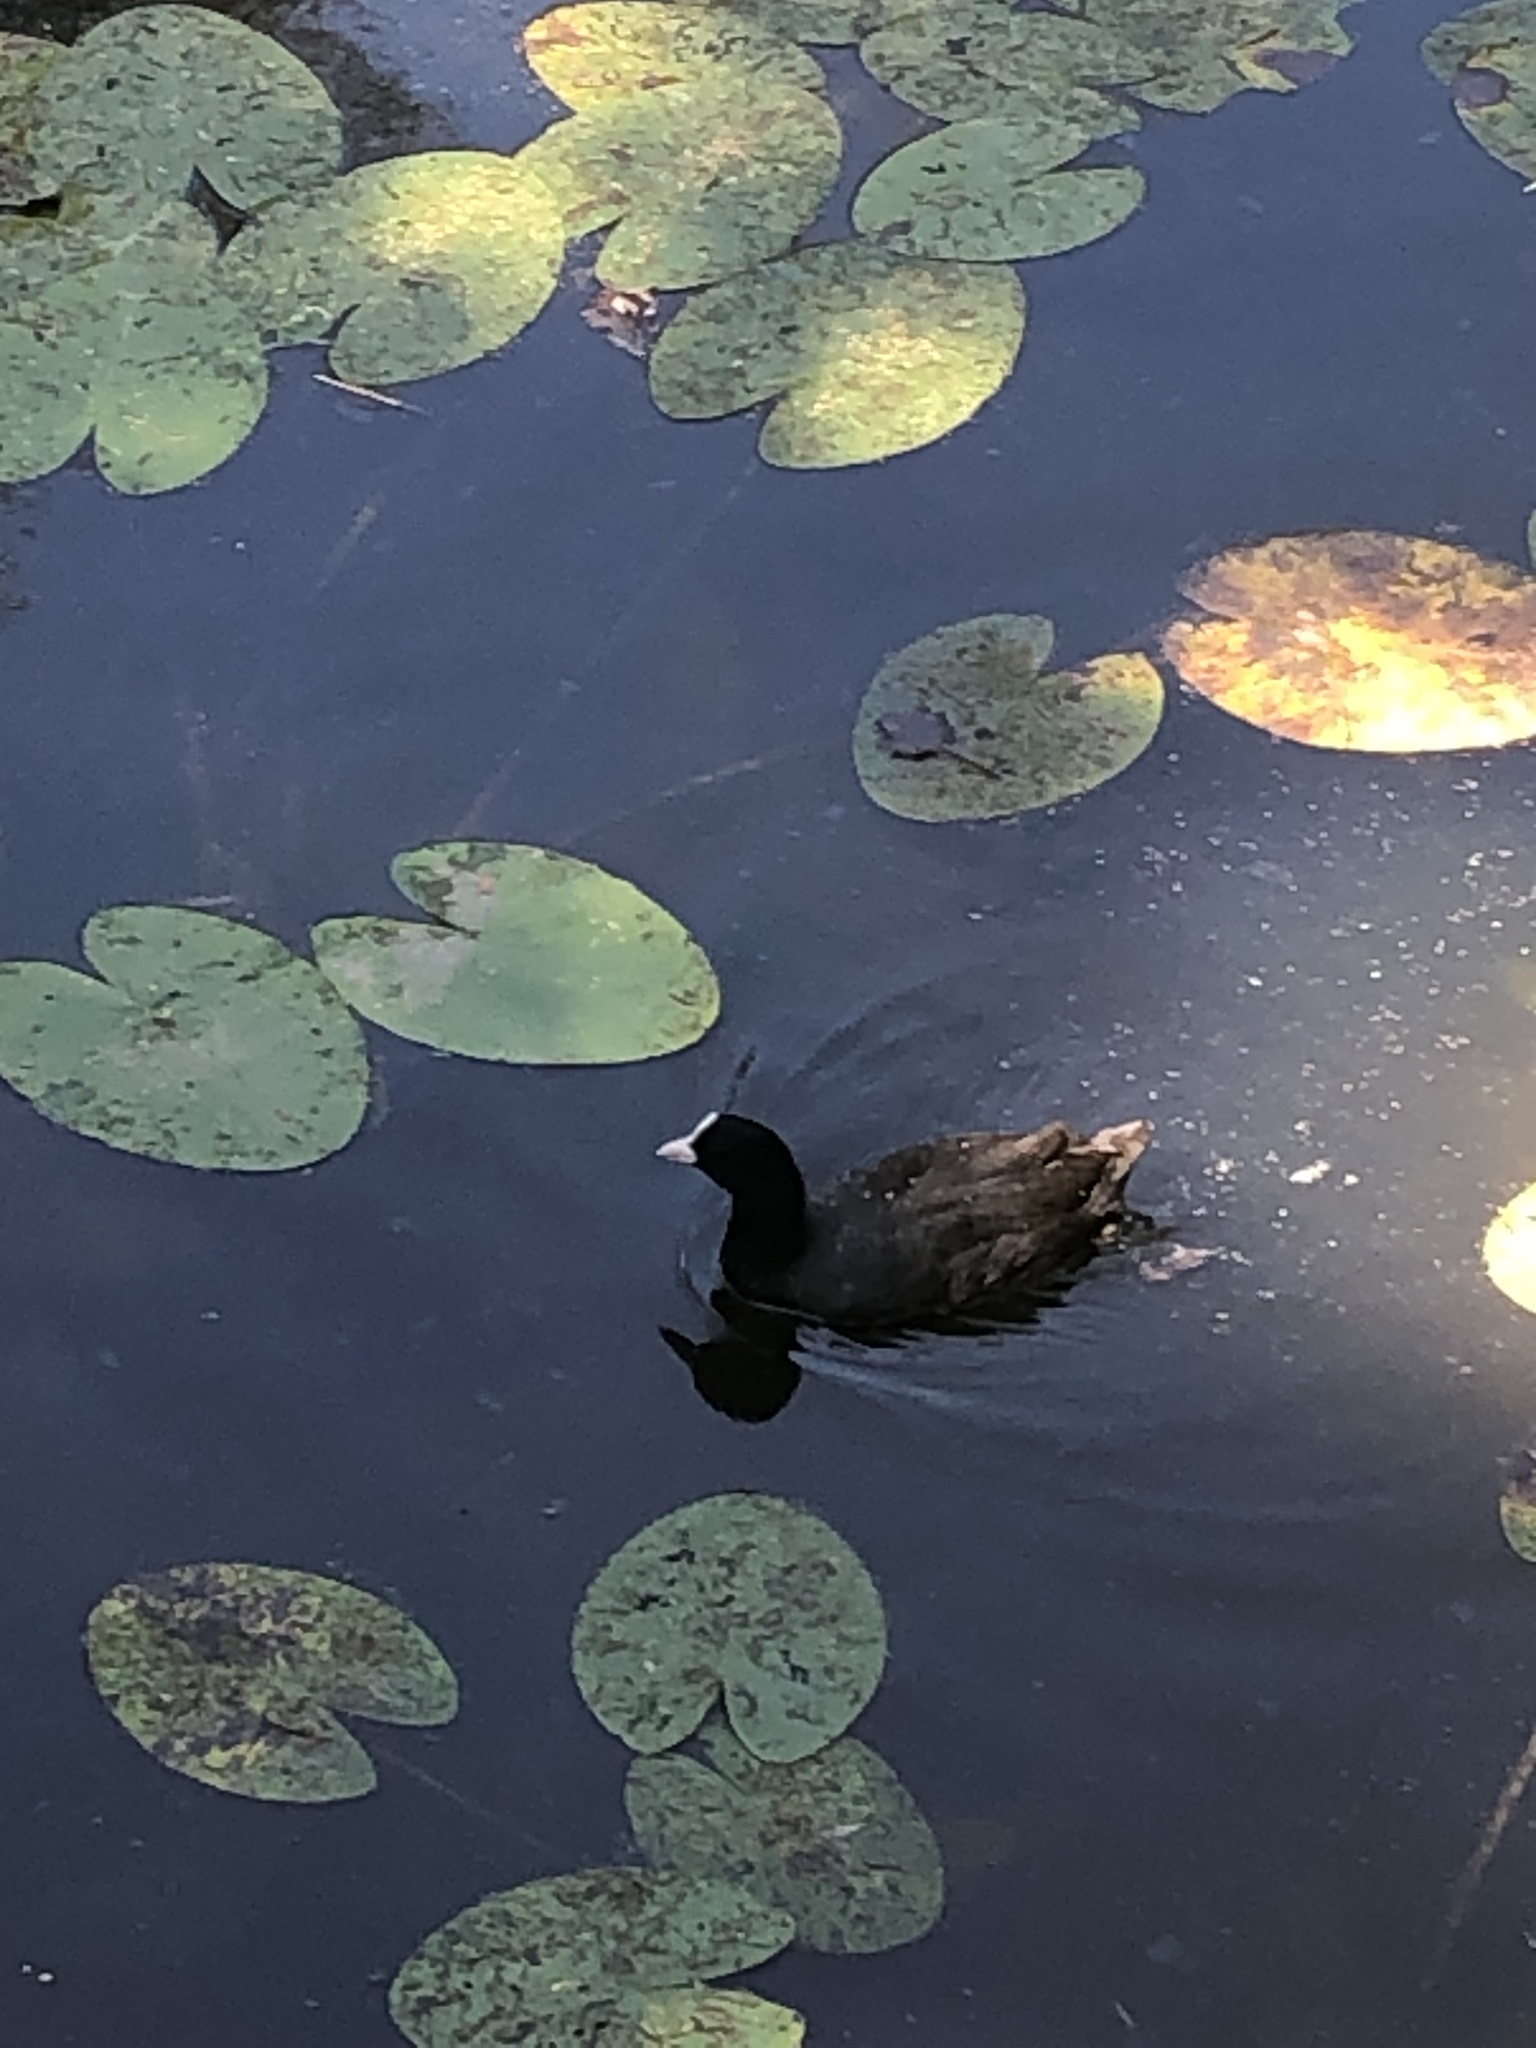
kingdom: Animalia
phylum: Chordata
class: Aves
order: Gruiformes
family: Rallidae
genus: Fulica
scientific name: Fulica atra
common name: Eurasian coot
